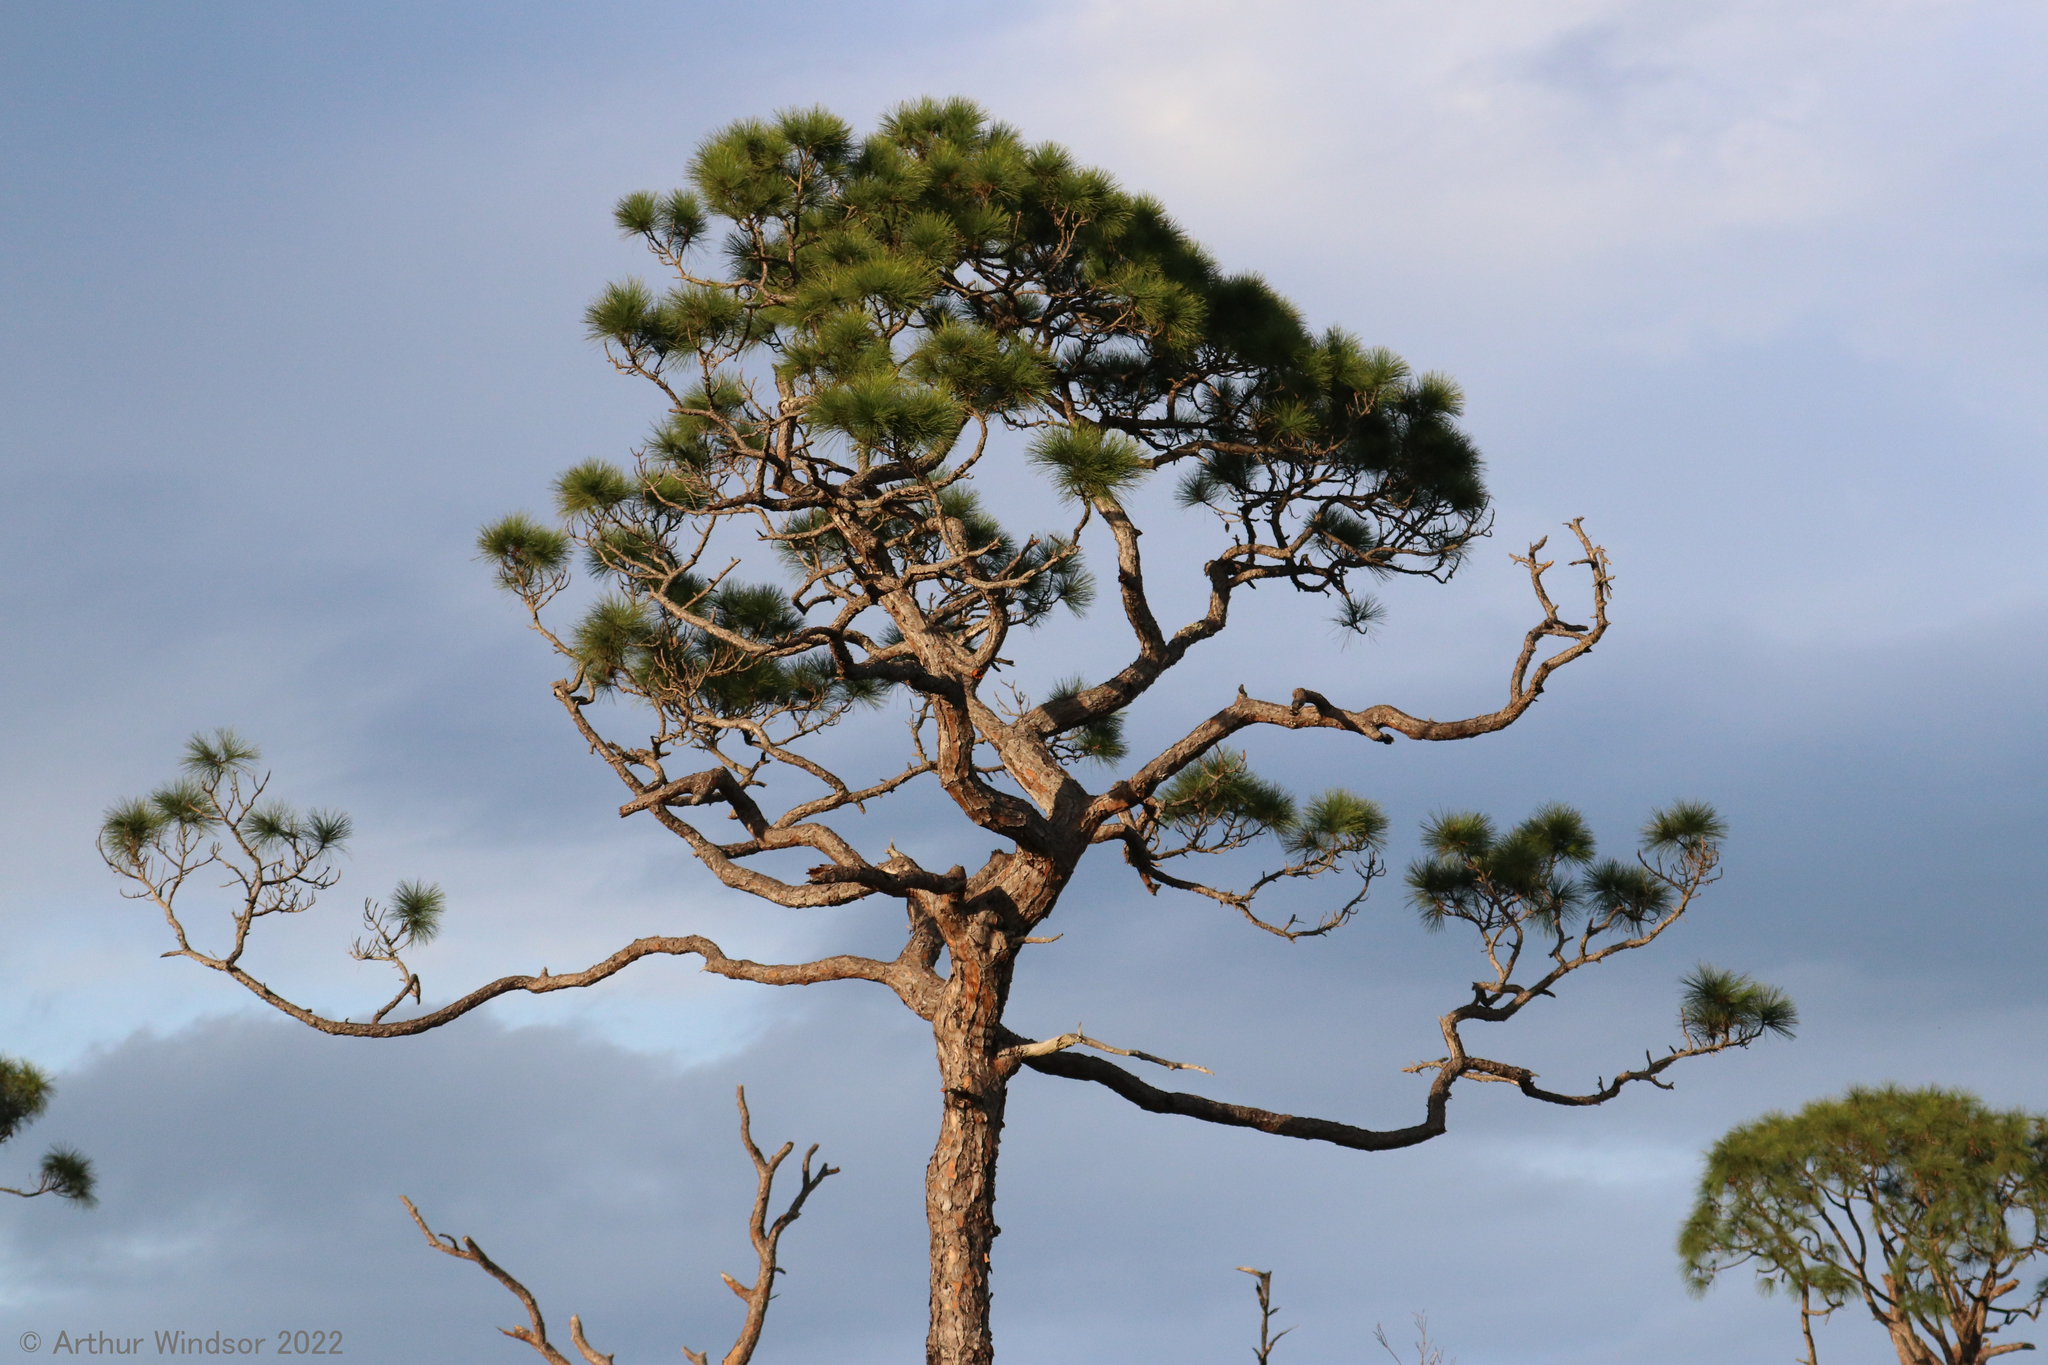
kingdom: Plantae
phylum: Tracheophyta
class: Pinopsida
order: Pinales
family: Pinaceae
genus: Pinus
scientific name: Pinus elliottii
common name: Slash pine
